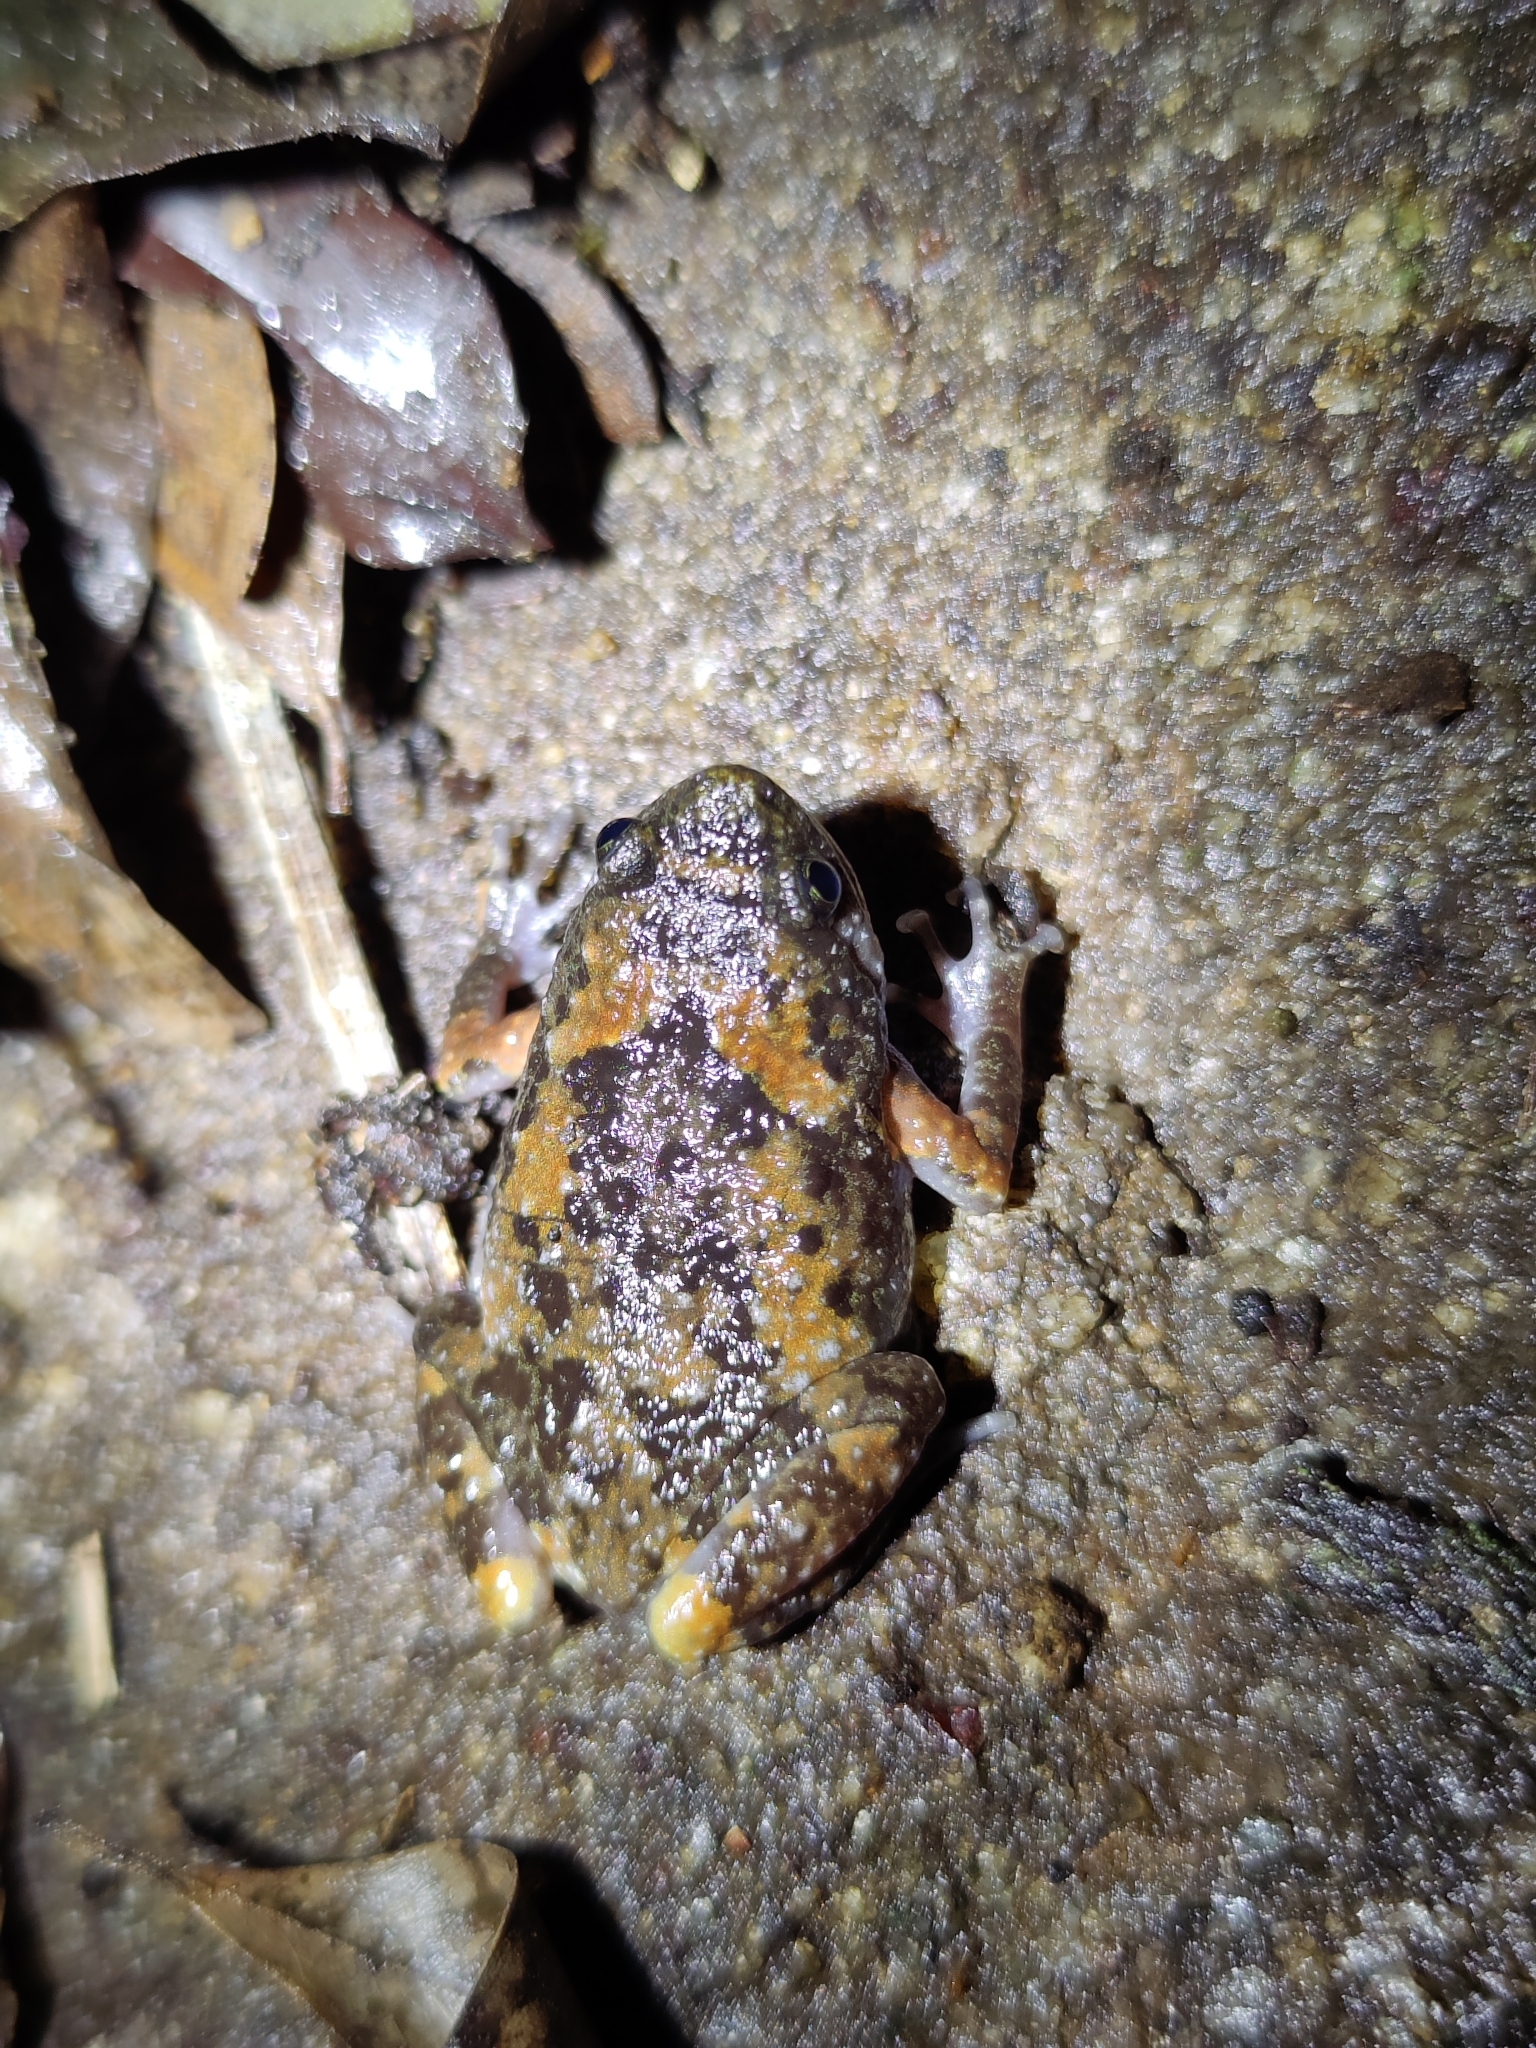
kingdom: Animalia
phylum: Chordata
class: Amphibia
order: Anura
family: Microhylidae
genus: Uperodon
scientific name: Uperodon montanus
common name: Jerdon's ramanella
